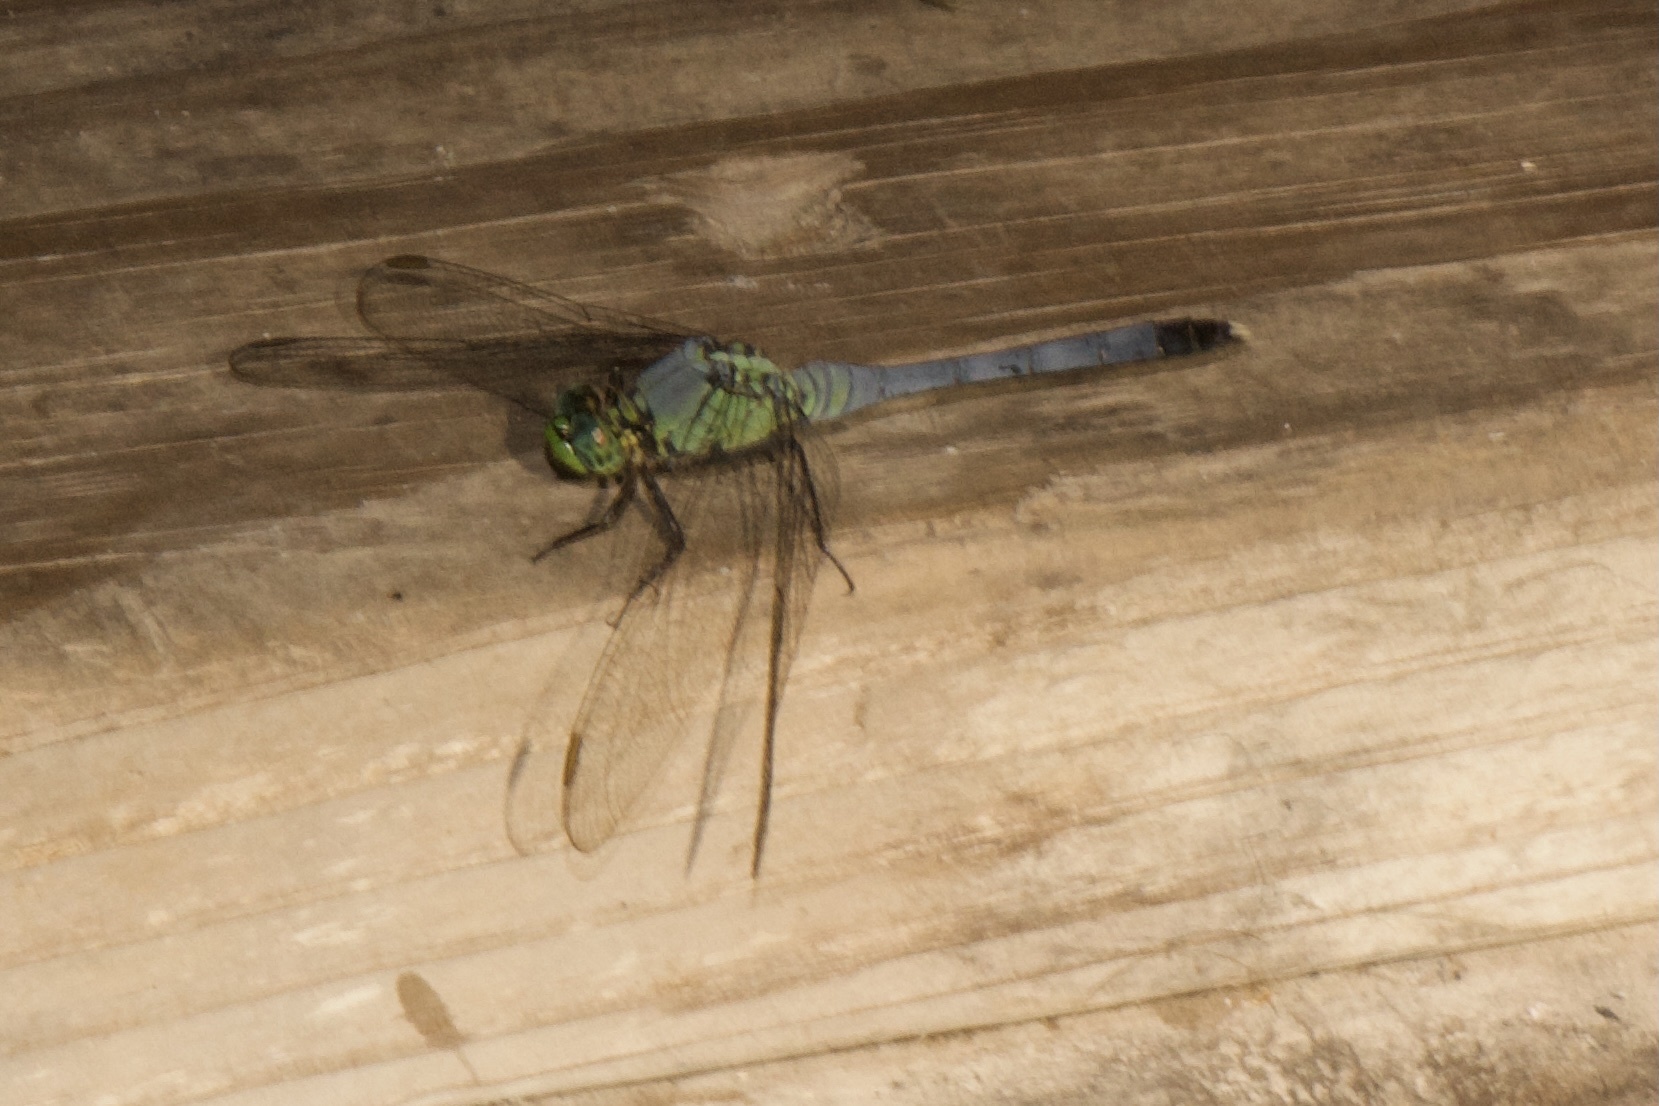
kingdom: Animalia
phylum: Arthropoda
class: Insecta
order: Odonata
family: Libellulidae
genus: Erythemis
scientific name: Erythemis simplicicollis
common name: Eastern pondhawk
